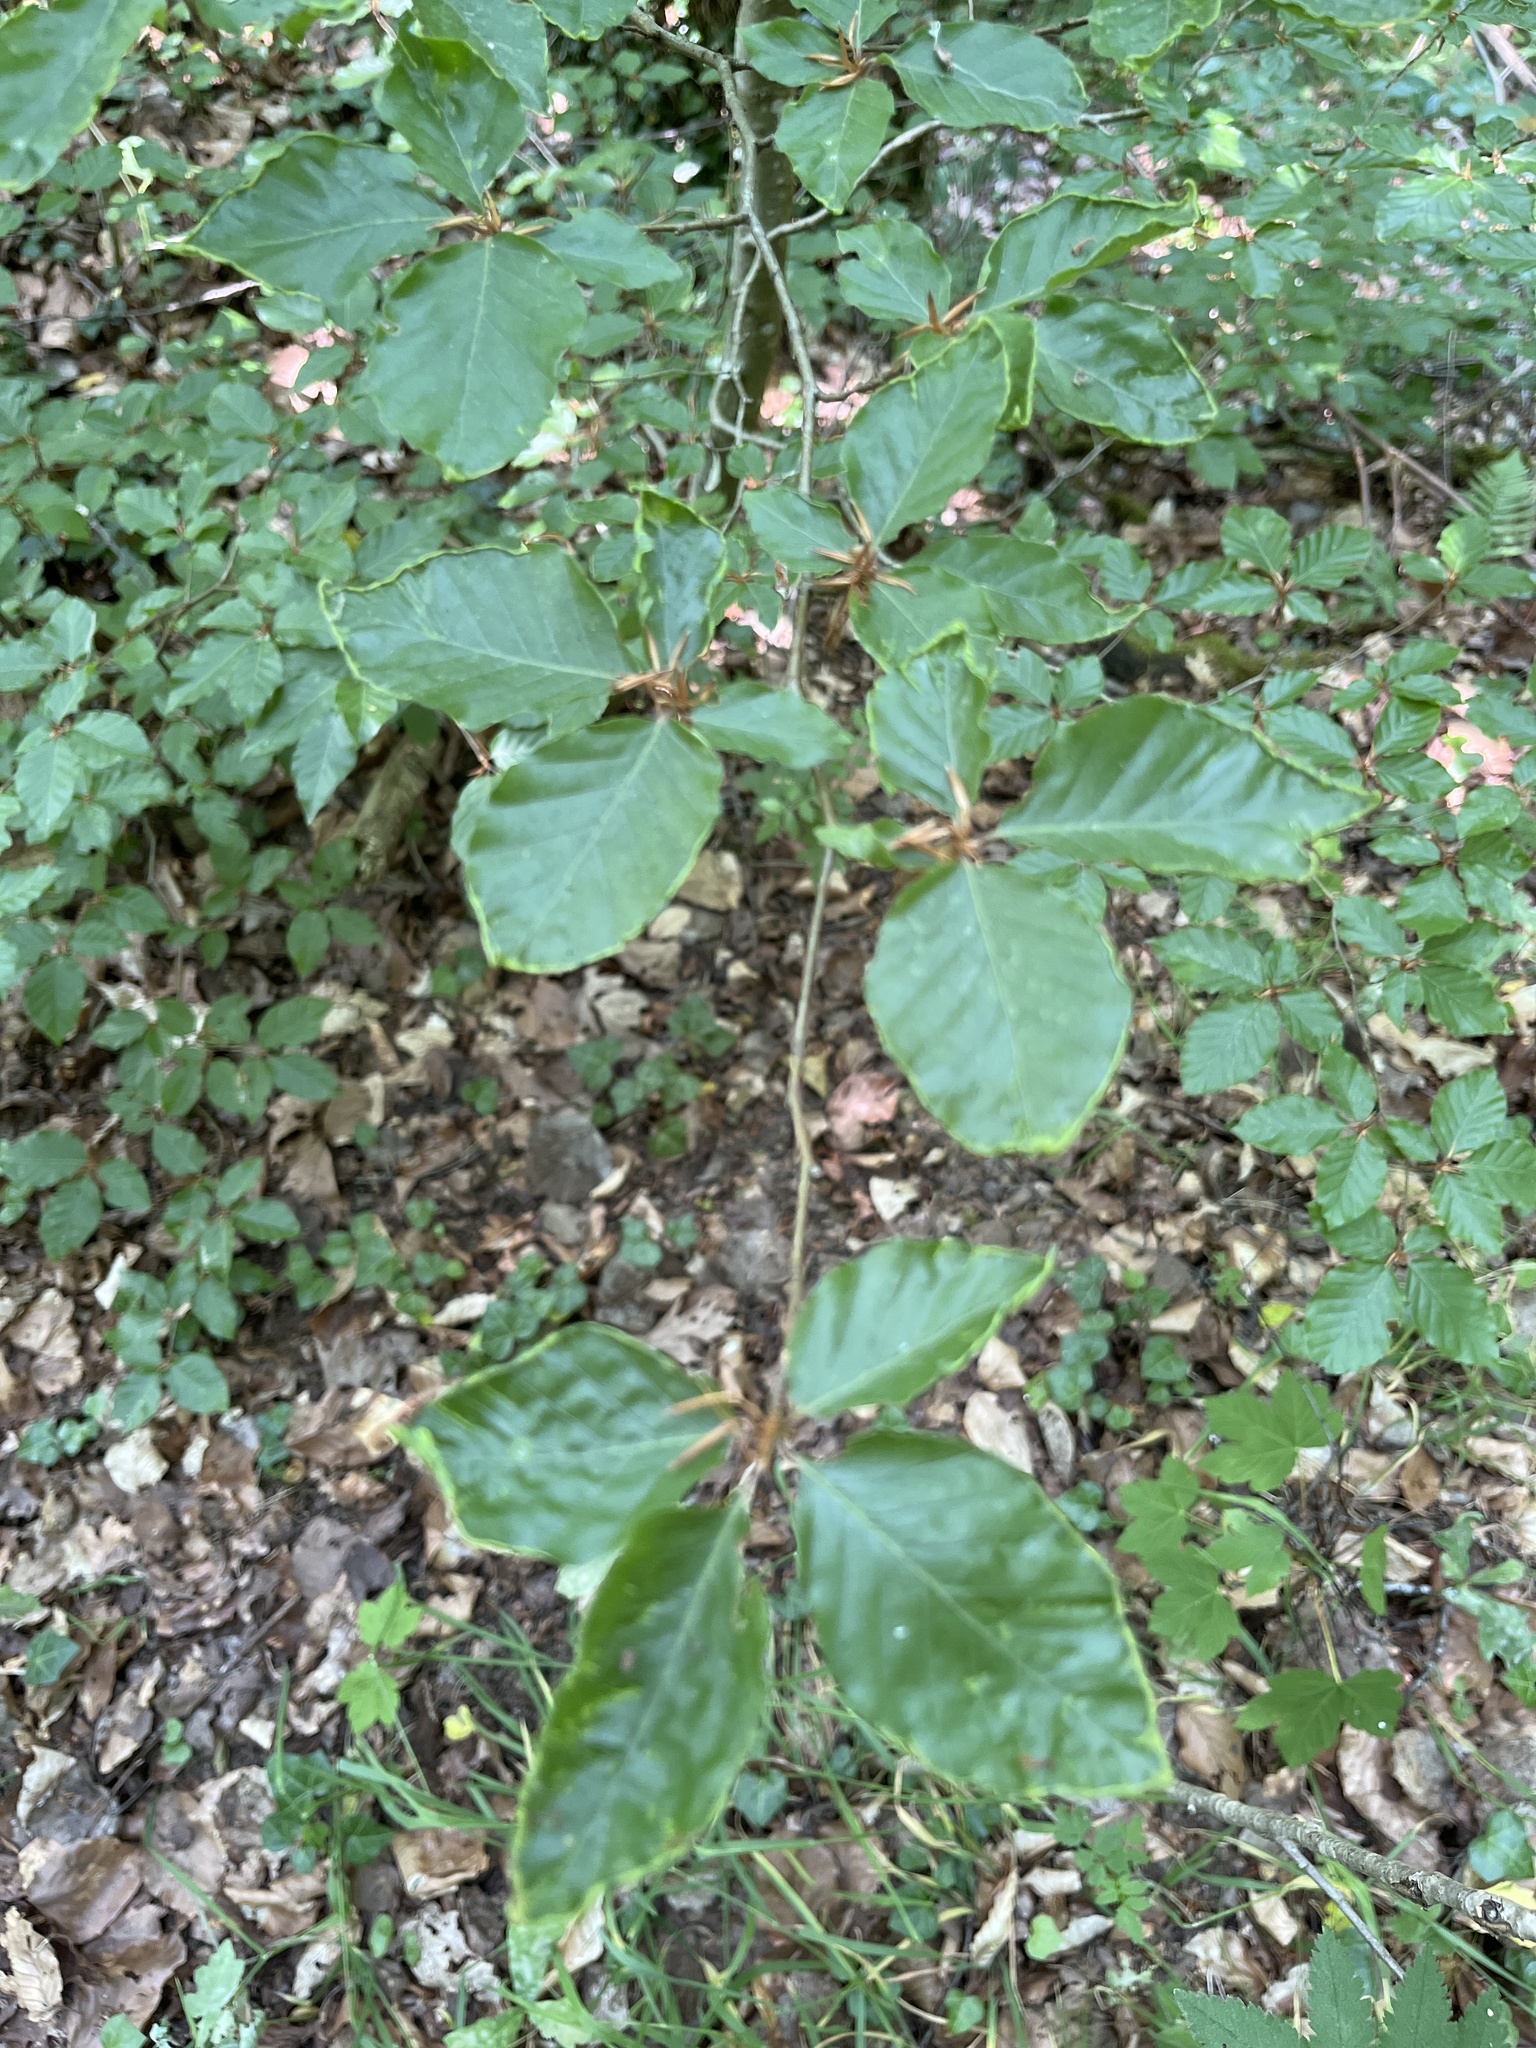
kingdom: Plantae
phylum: Tracheophyta
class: Magnoliopsida
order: Fagales
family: Fagaceae
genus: Fagus
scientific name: Fagus sylvatica
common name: Beech
